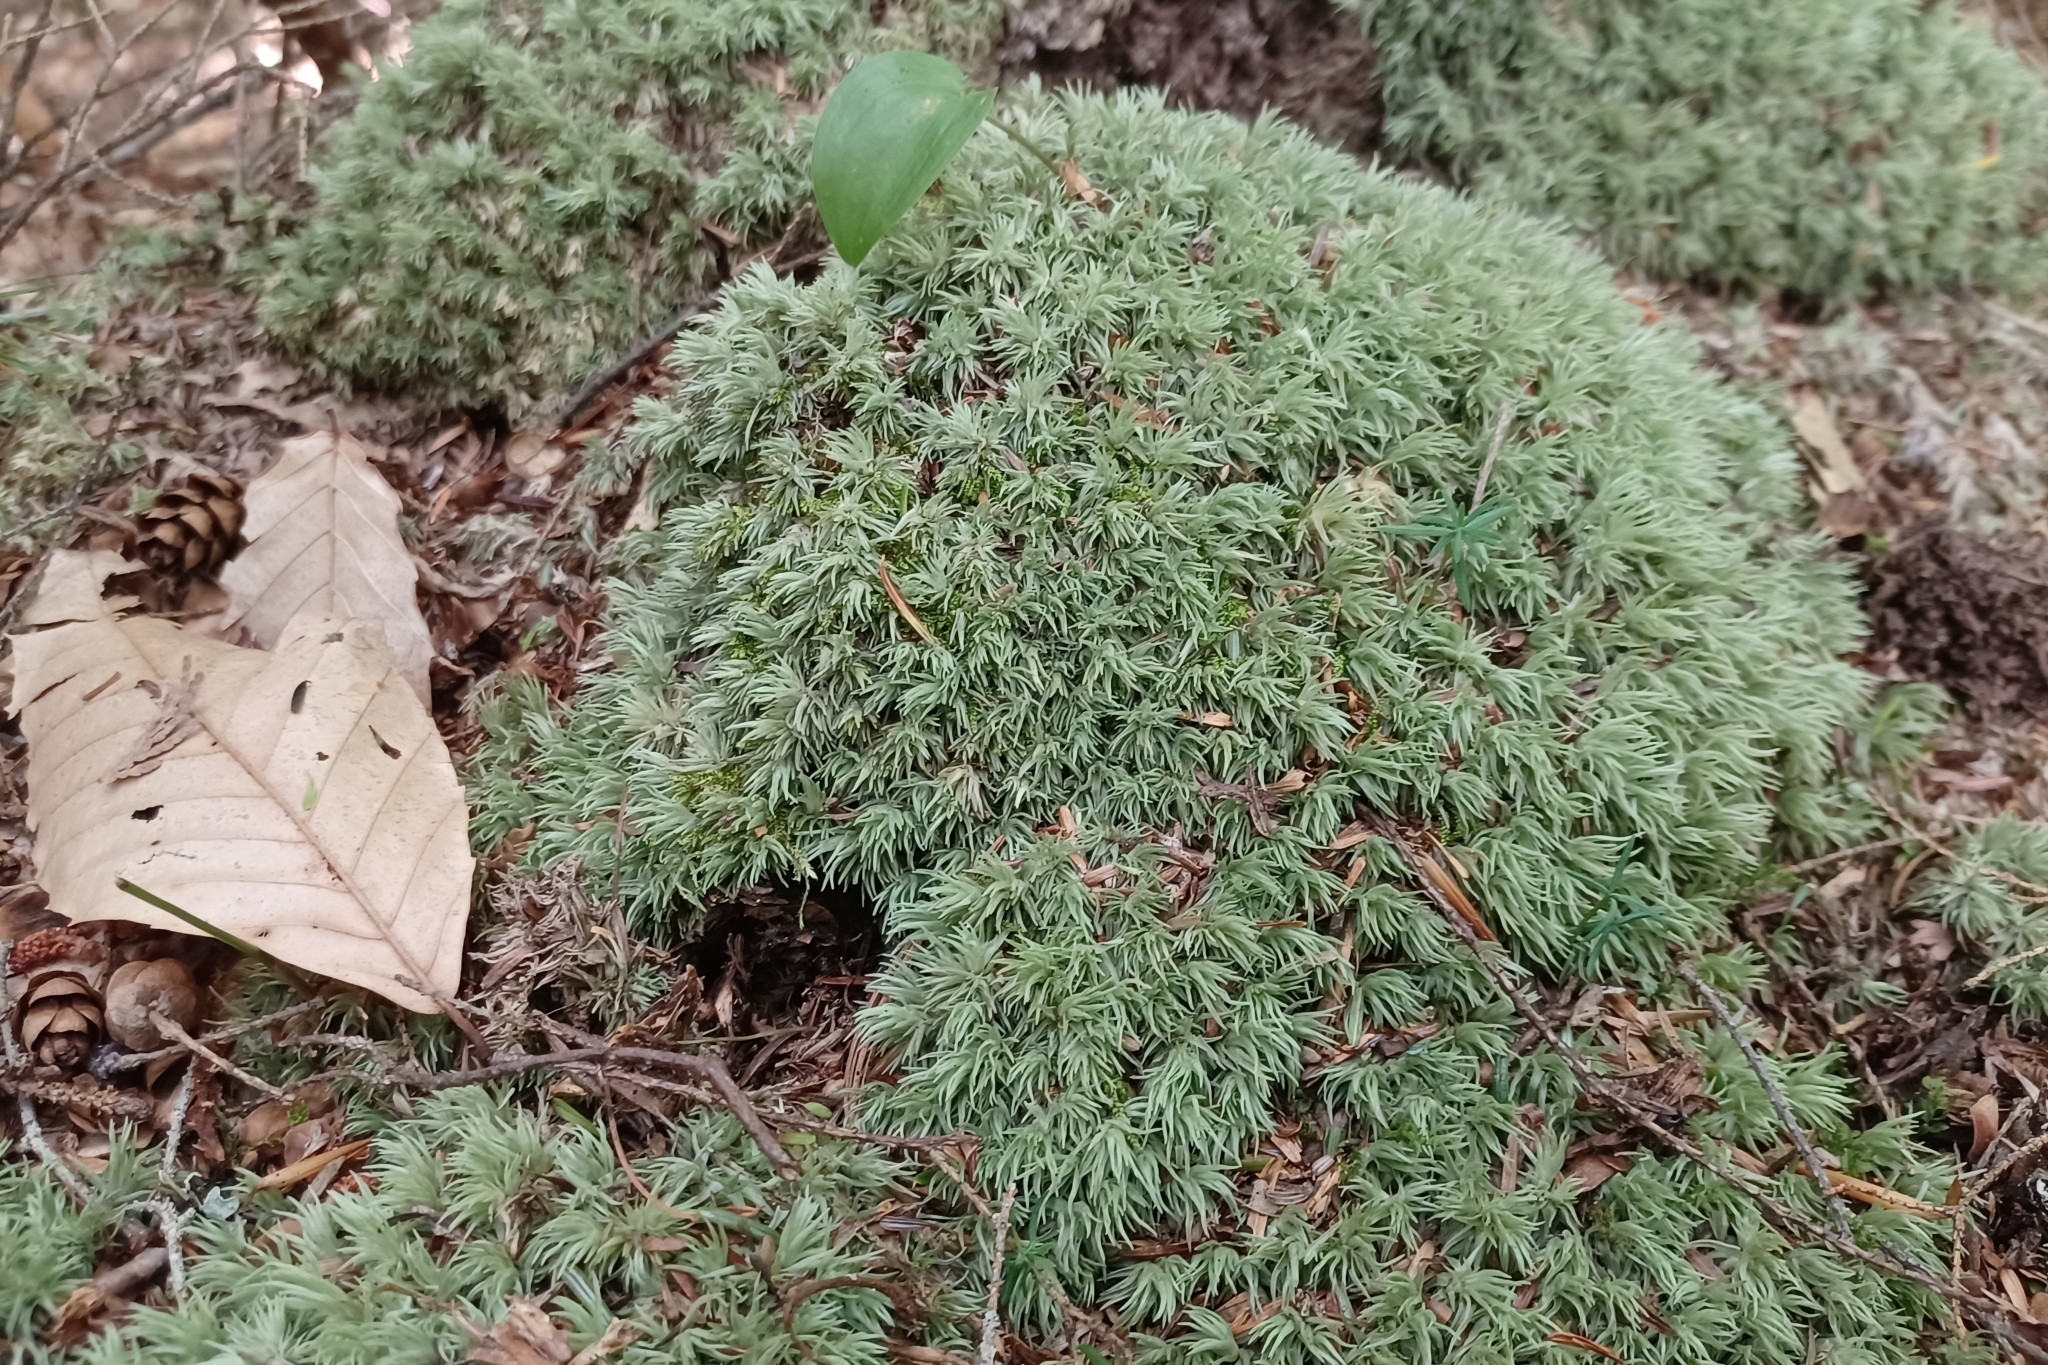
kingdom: Plantae
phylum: Bryophyta
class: Bryopsida
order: Dicranales
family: Leucobryaceae
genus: Leucobryum
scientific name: Leucobryum glaucum
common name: Large white-moss
